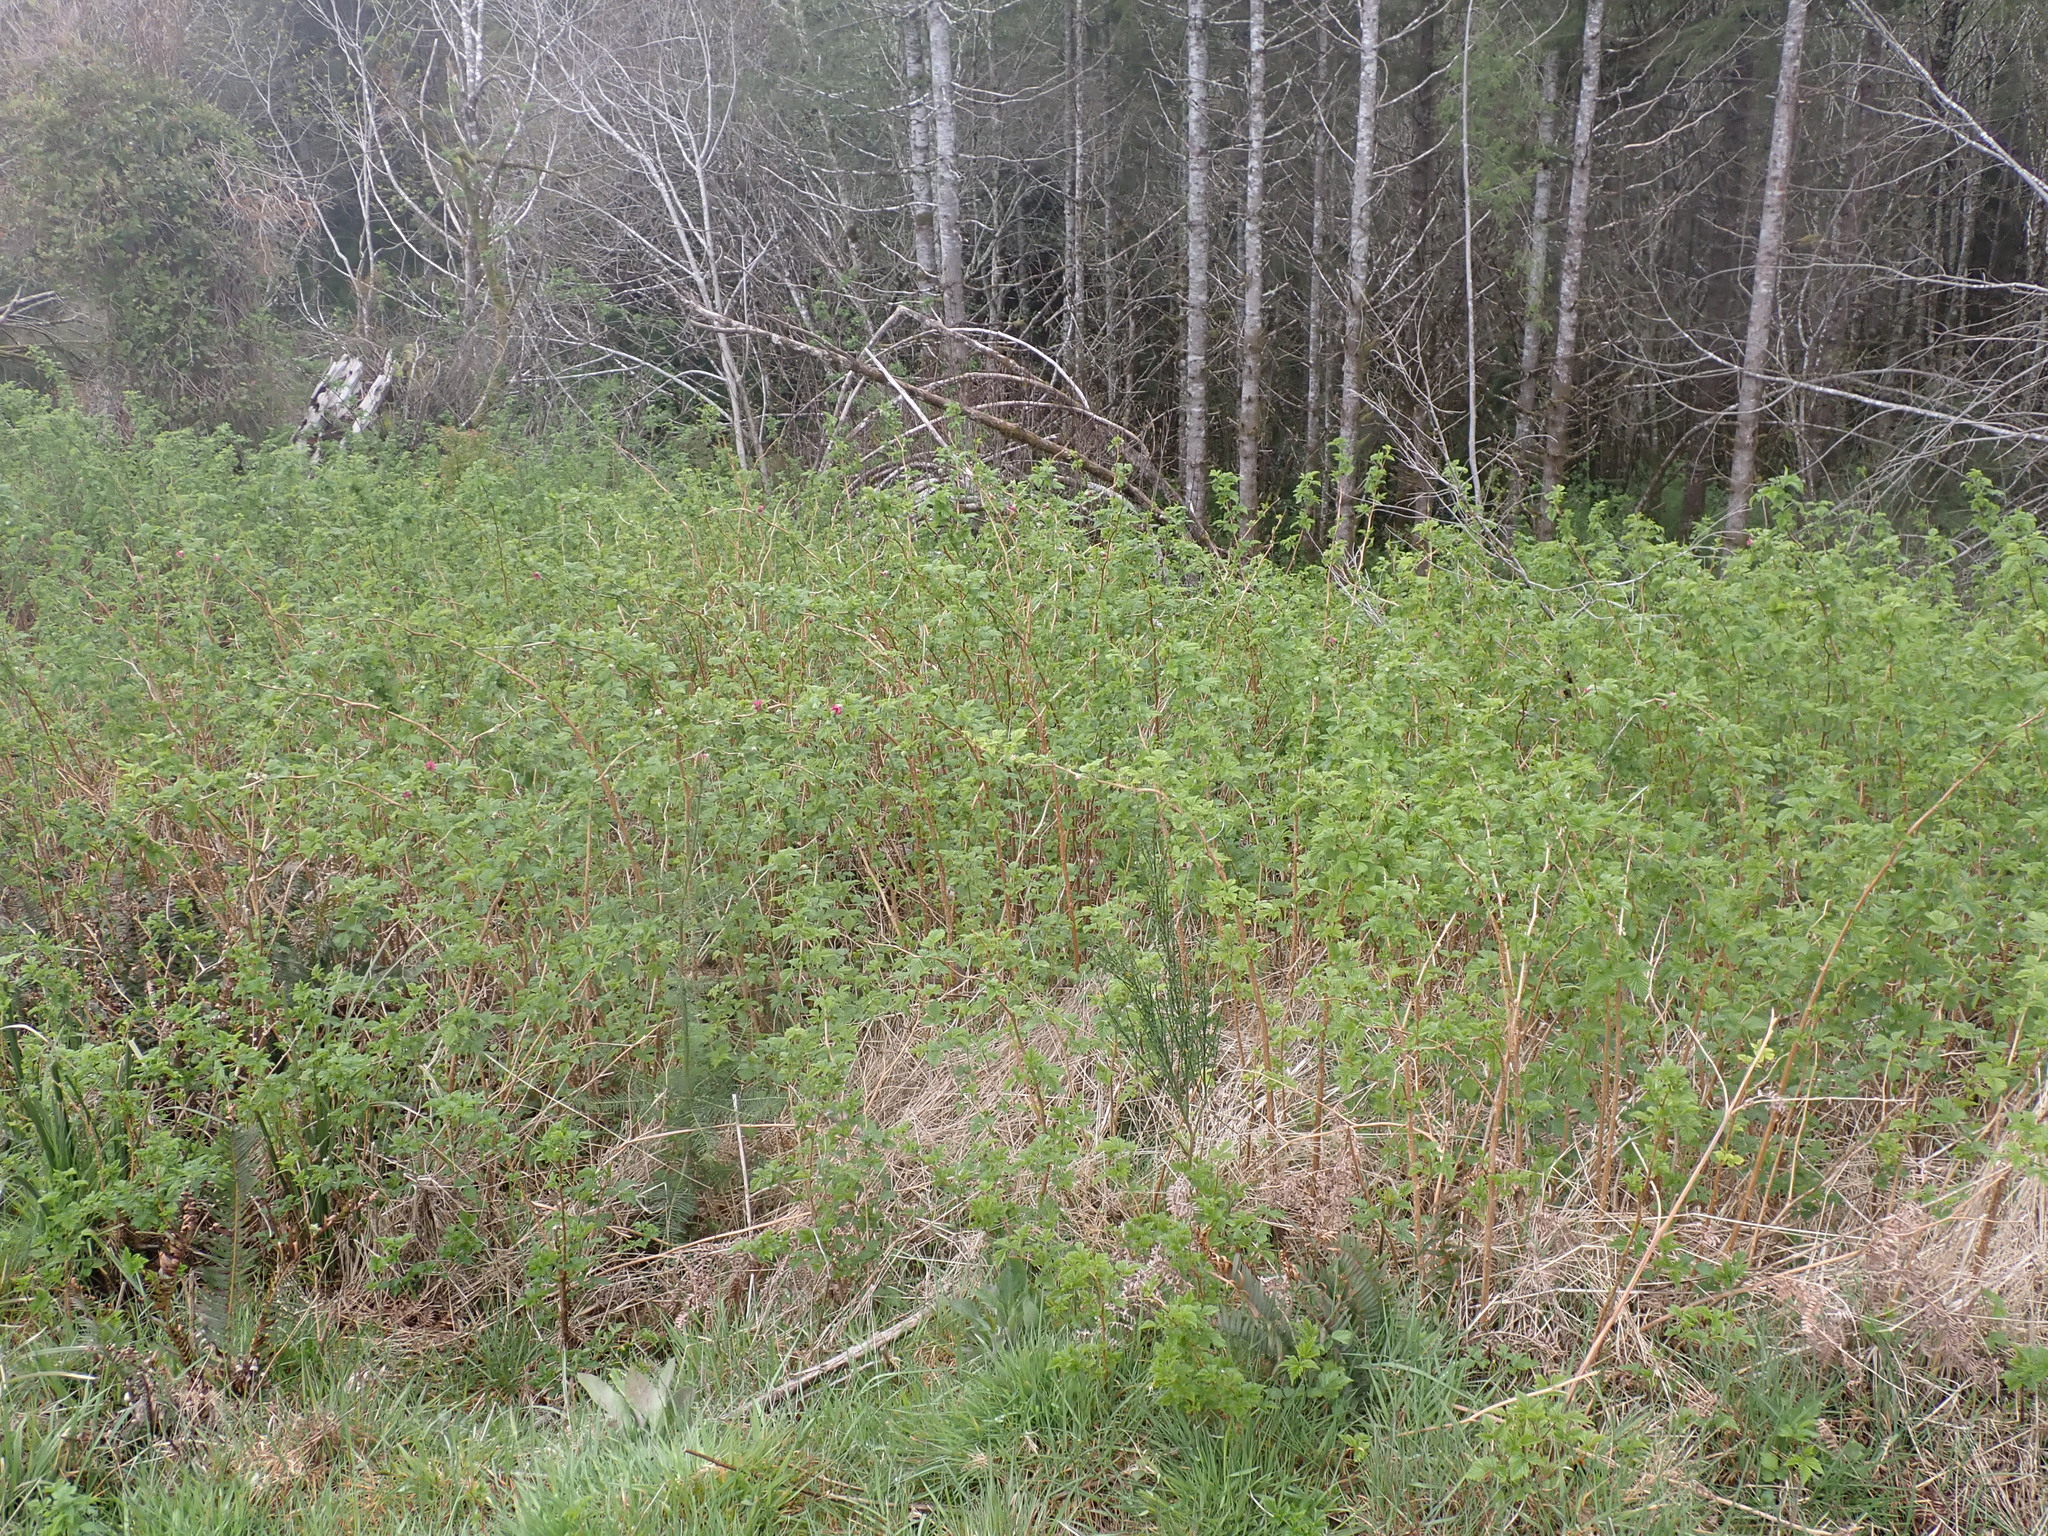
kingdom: Plantae
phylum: Tracheophyta
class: Magnoliopsida
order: Rosales
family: Rosaceae
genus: Rubus
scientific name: Rubus spectabilis
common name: Salmonberry
